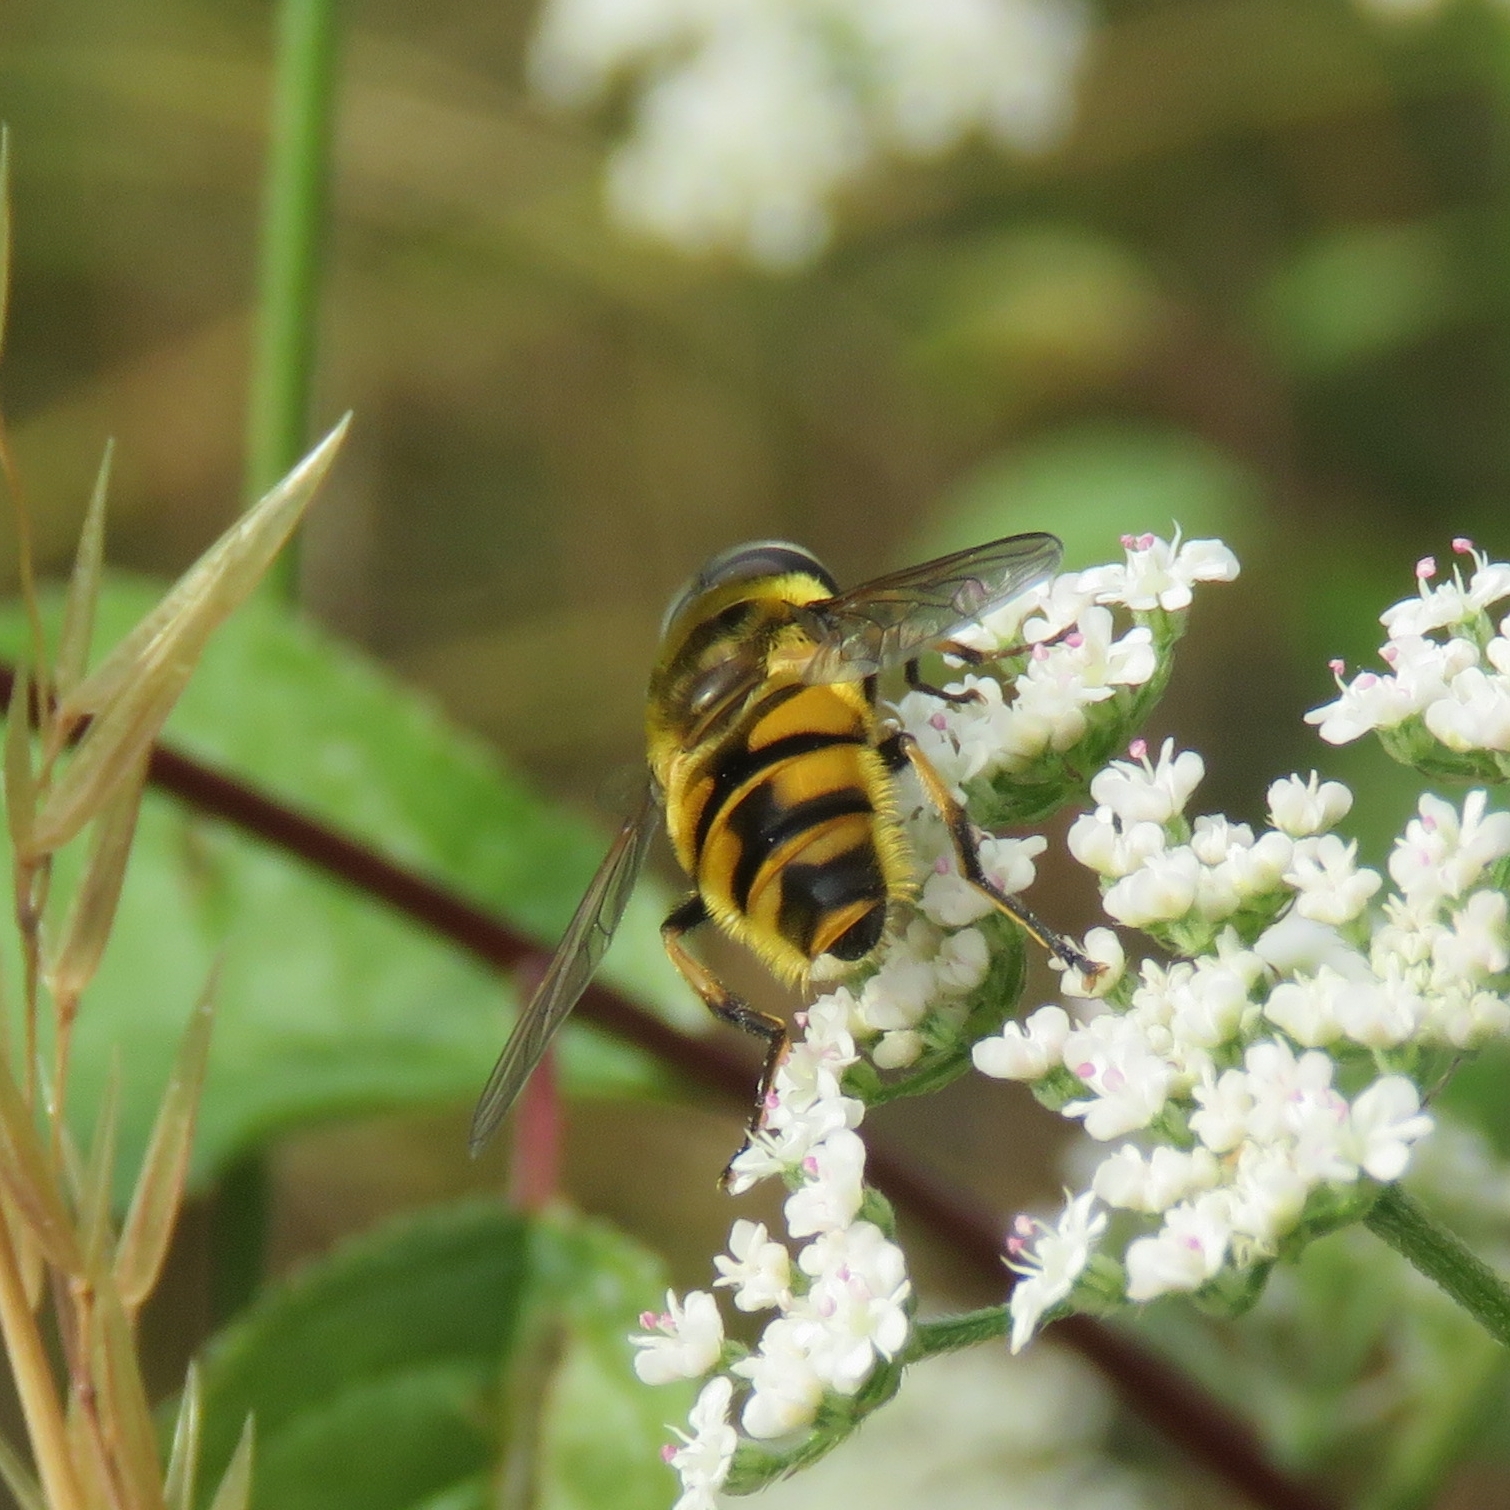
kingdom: Animalia
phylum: Arthropoda
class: Insecta
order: Diptera
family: Syrphidae
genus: Myathropa
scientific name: Myathropa florea
